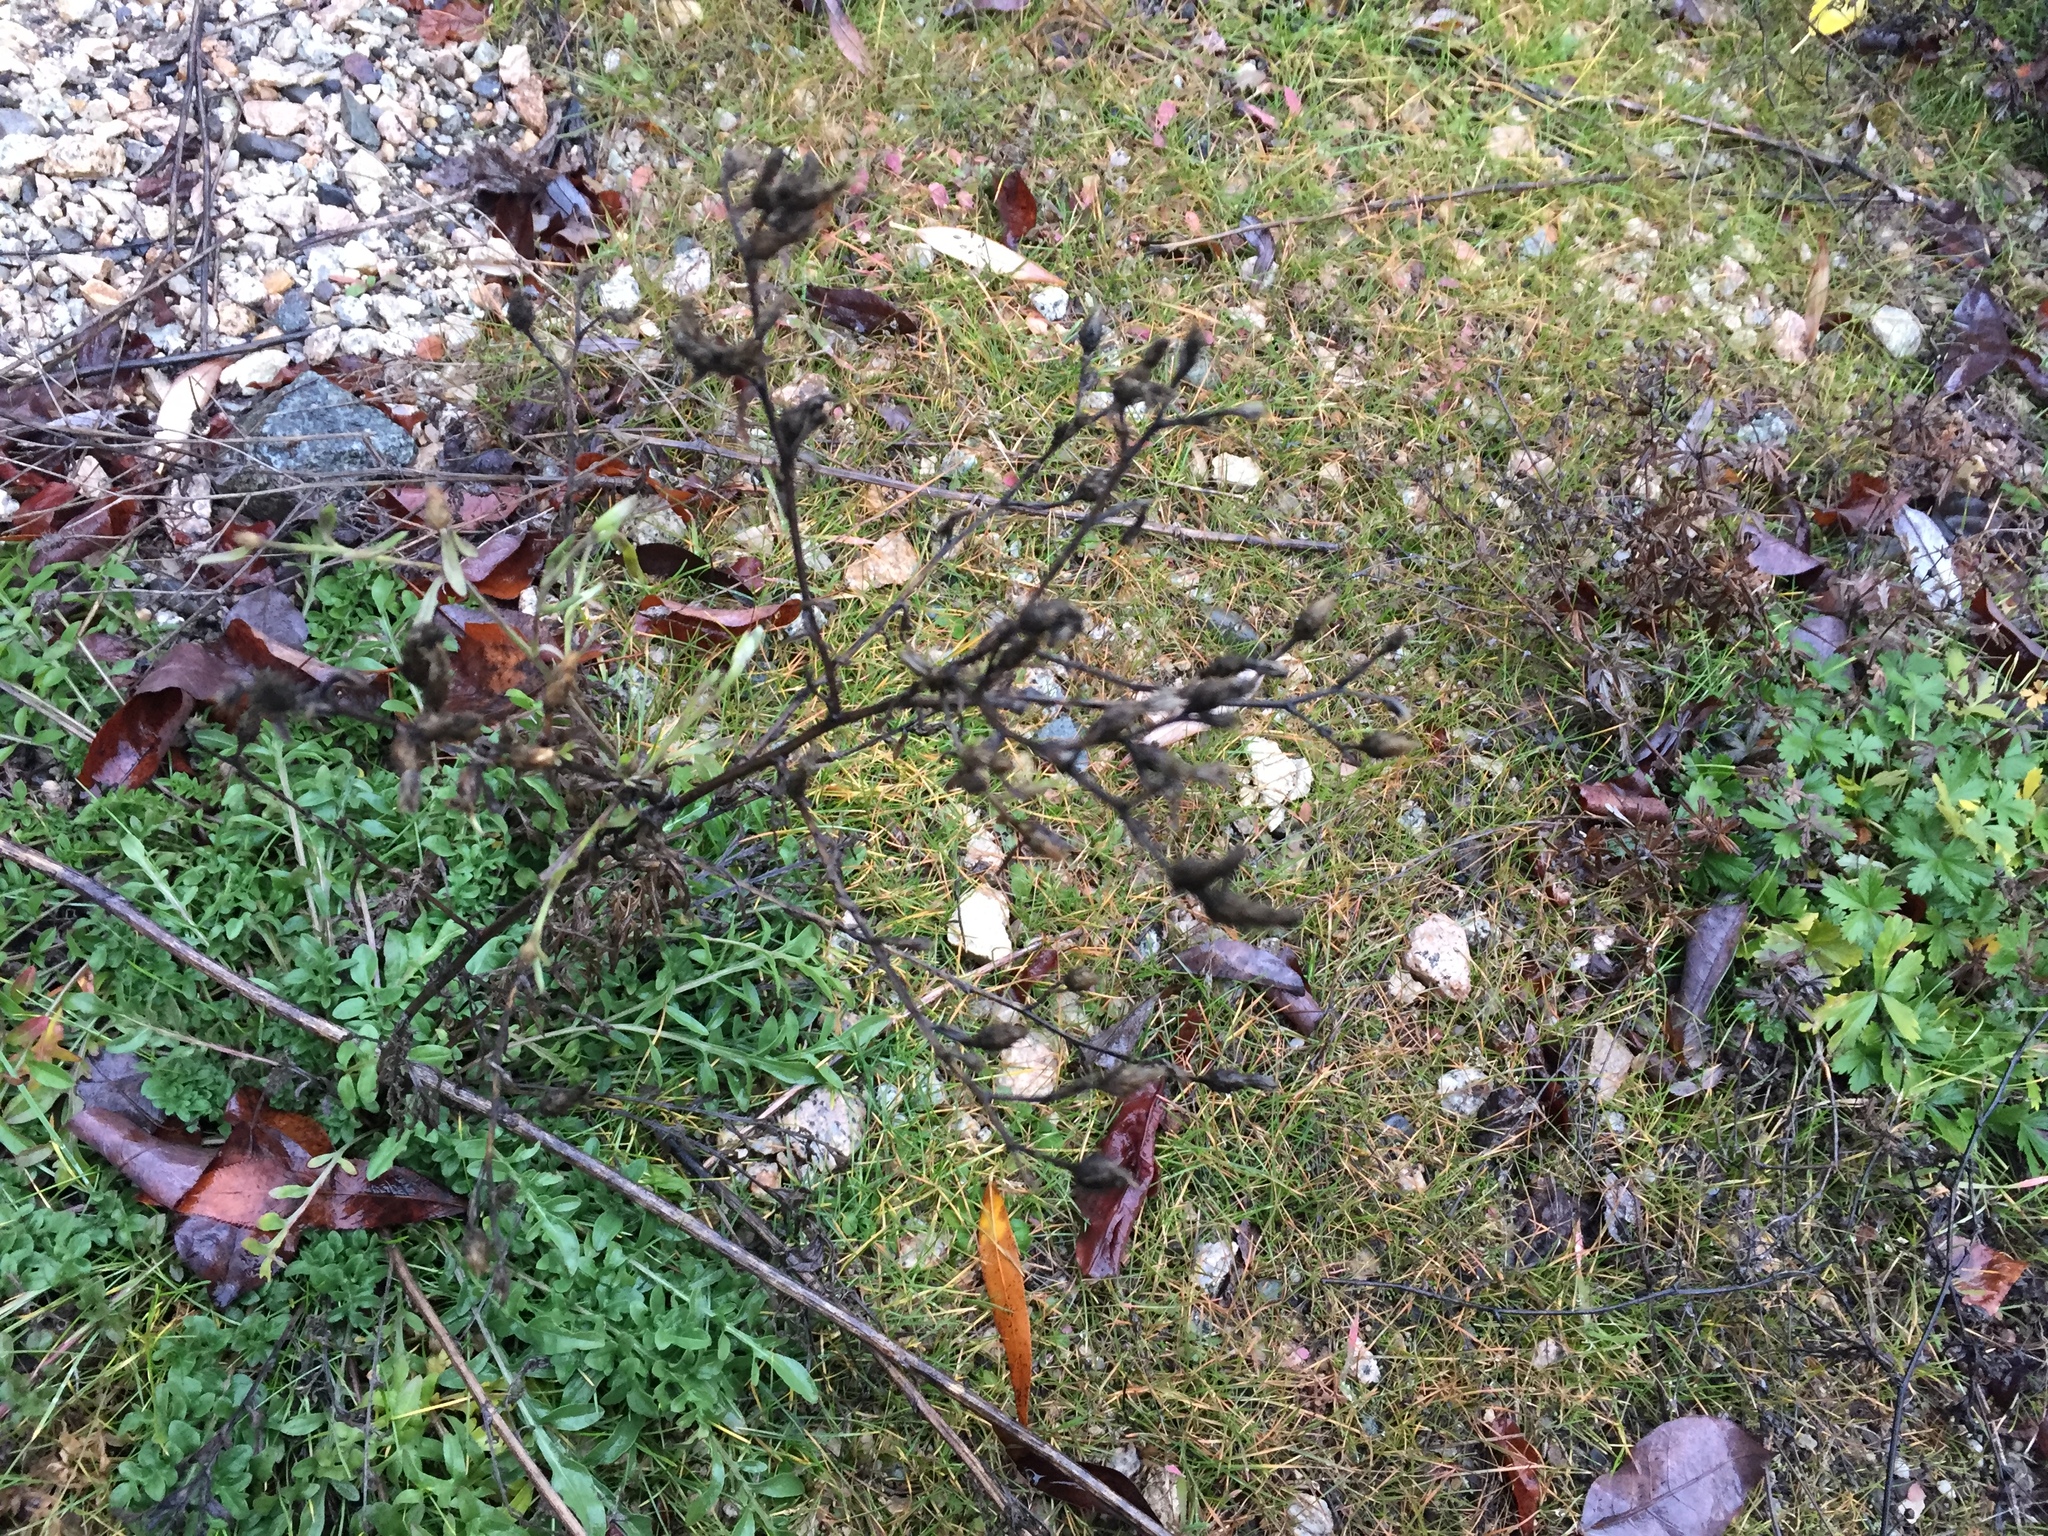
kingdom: Plantae
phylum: Tracheophyta
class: Magnoliopsida
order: Asterales
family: Asteraceae
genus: Centaurea
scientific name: Centaurea diffusa
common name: Diffuse knapweed
